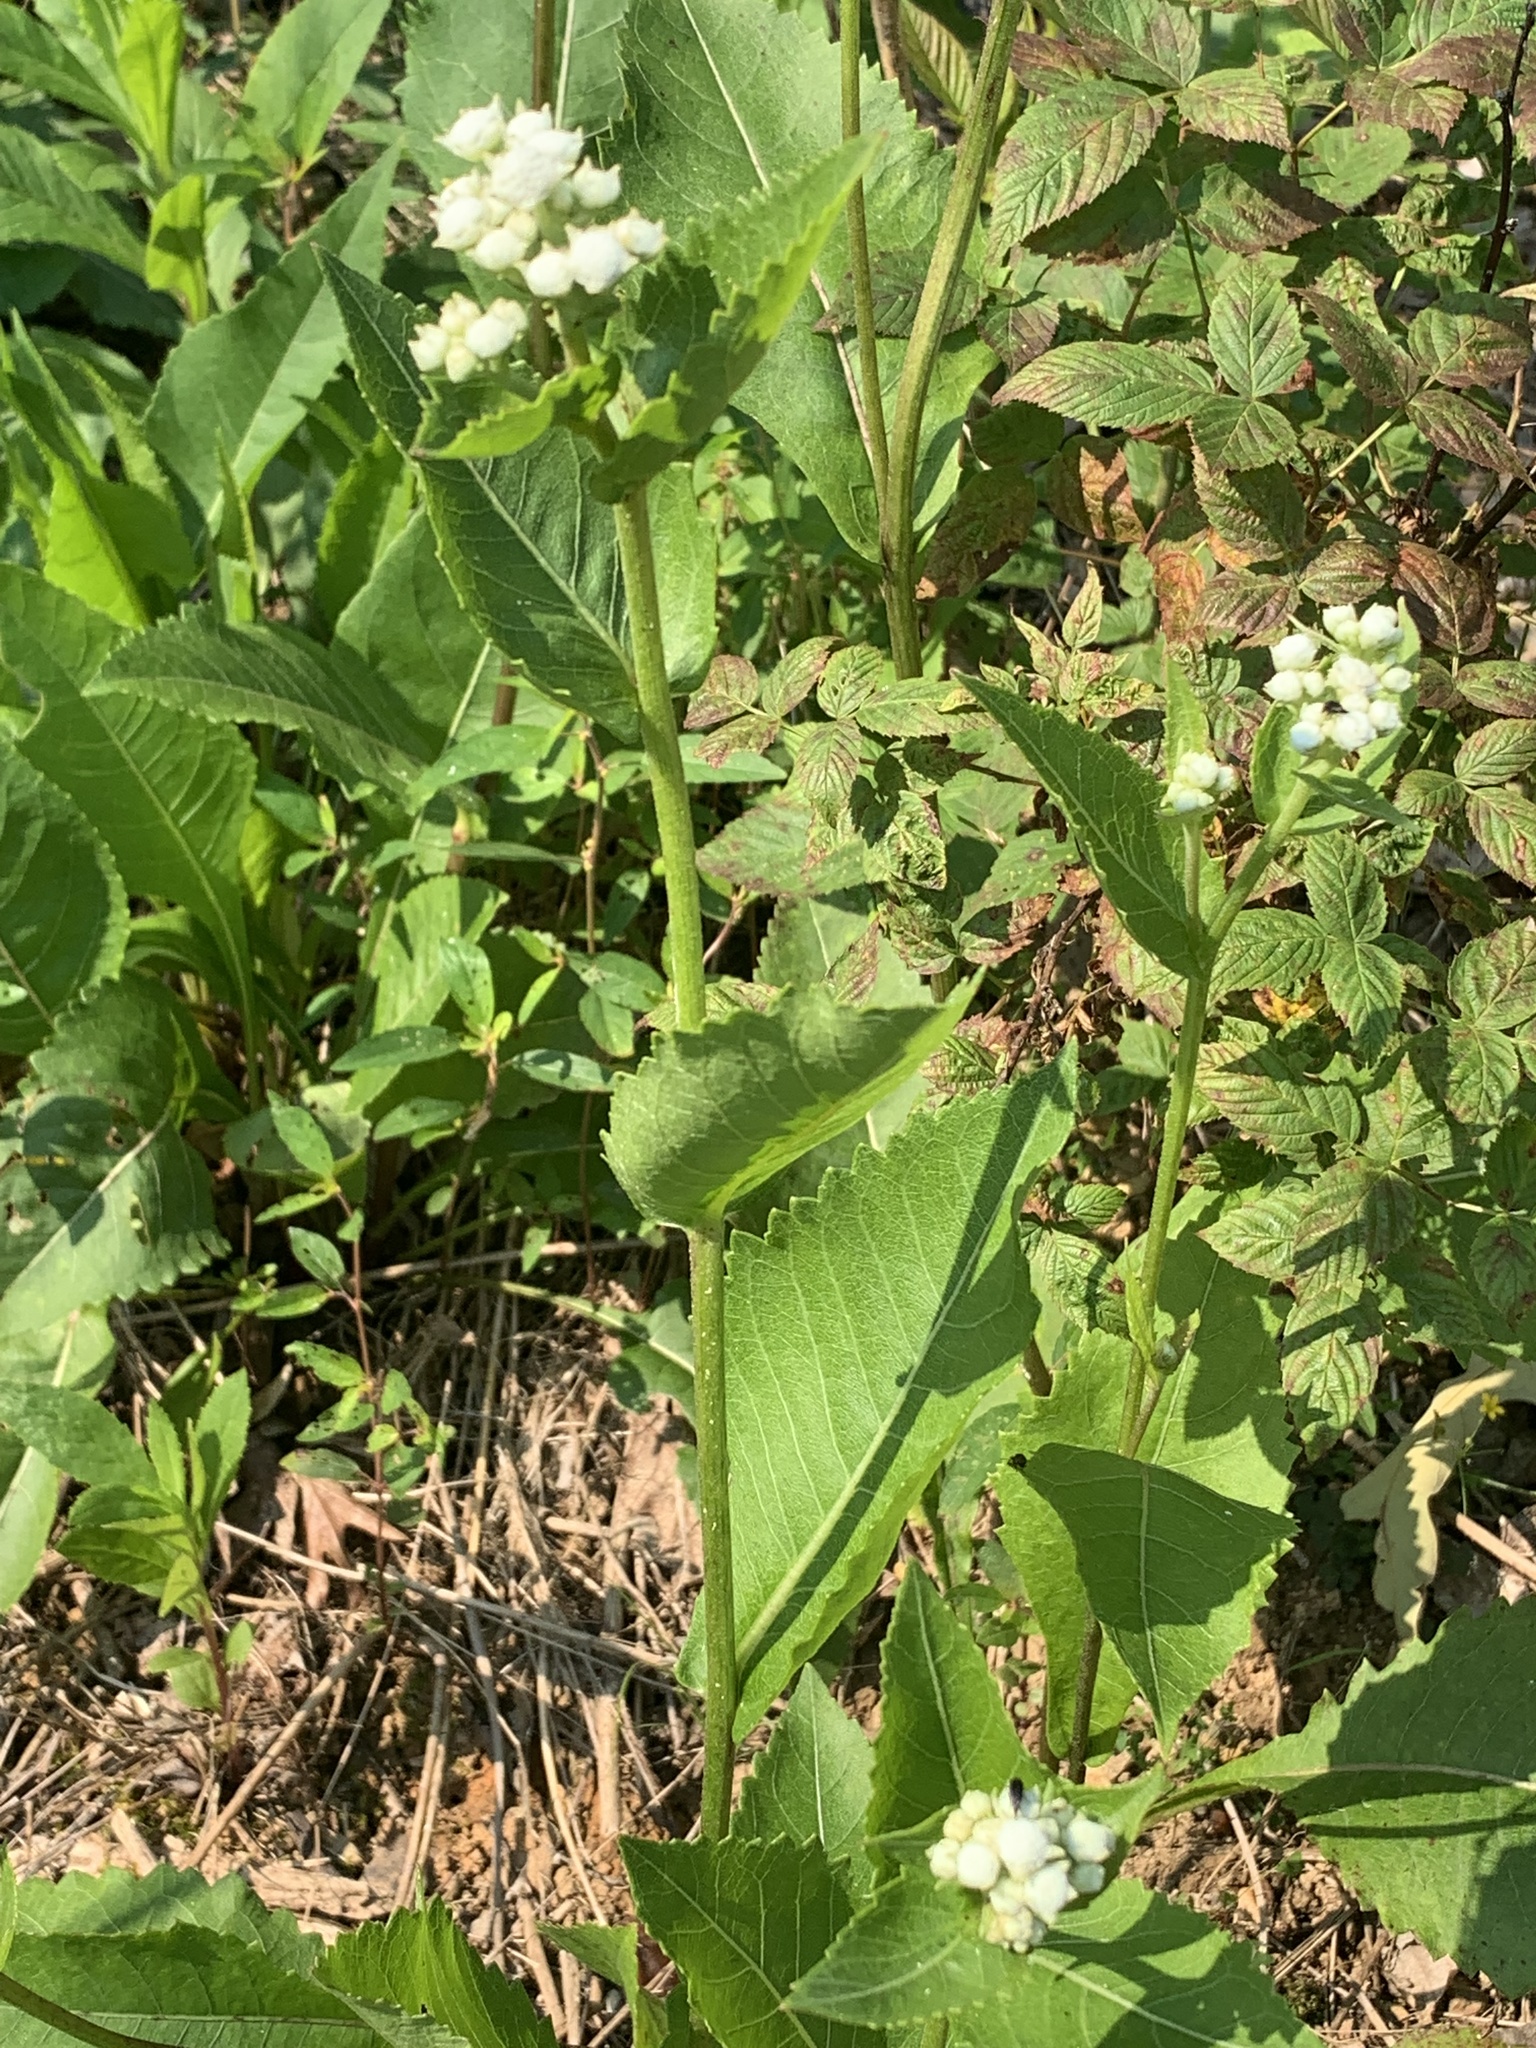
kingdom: Plantae
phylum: Tracheophyta
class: Magnoliopsida
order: Asterales
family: Asteraceae
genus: Parthenium
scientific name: Parthenium integrifolium
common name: American feverfew
